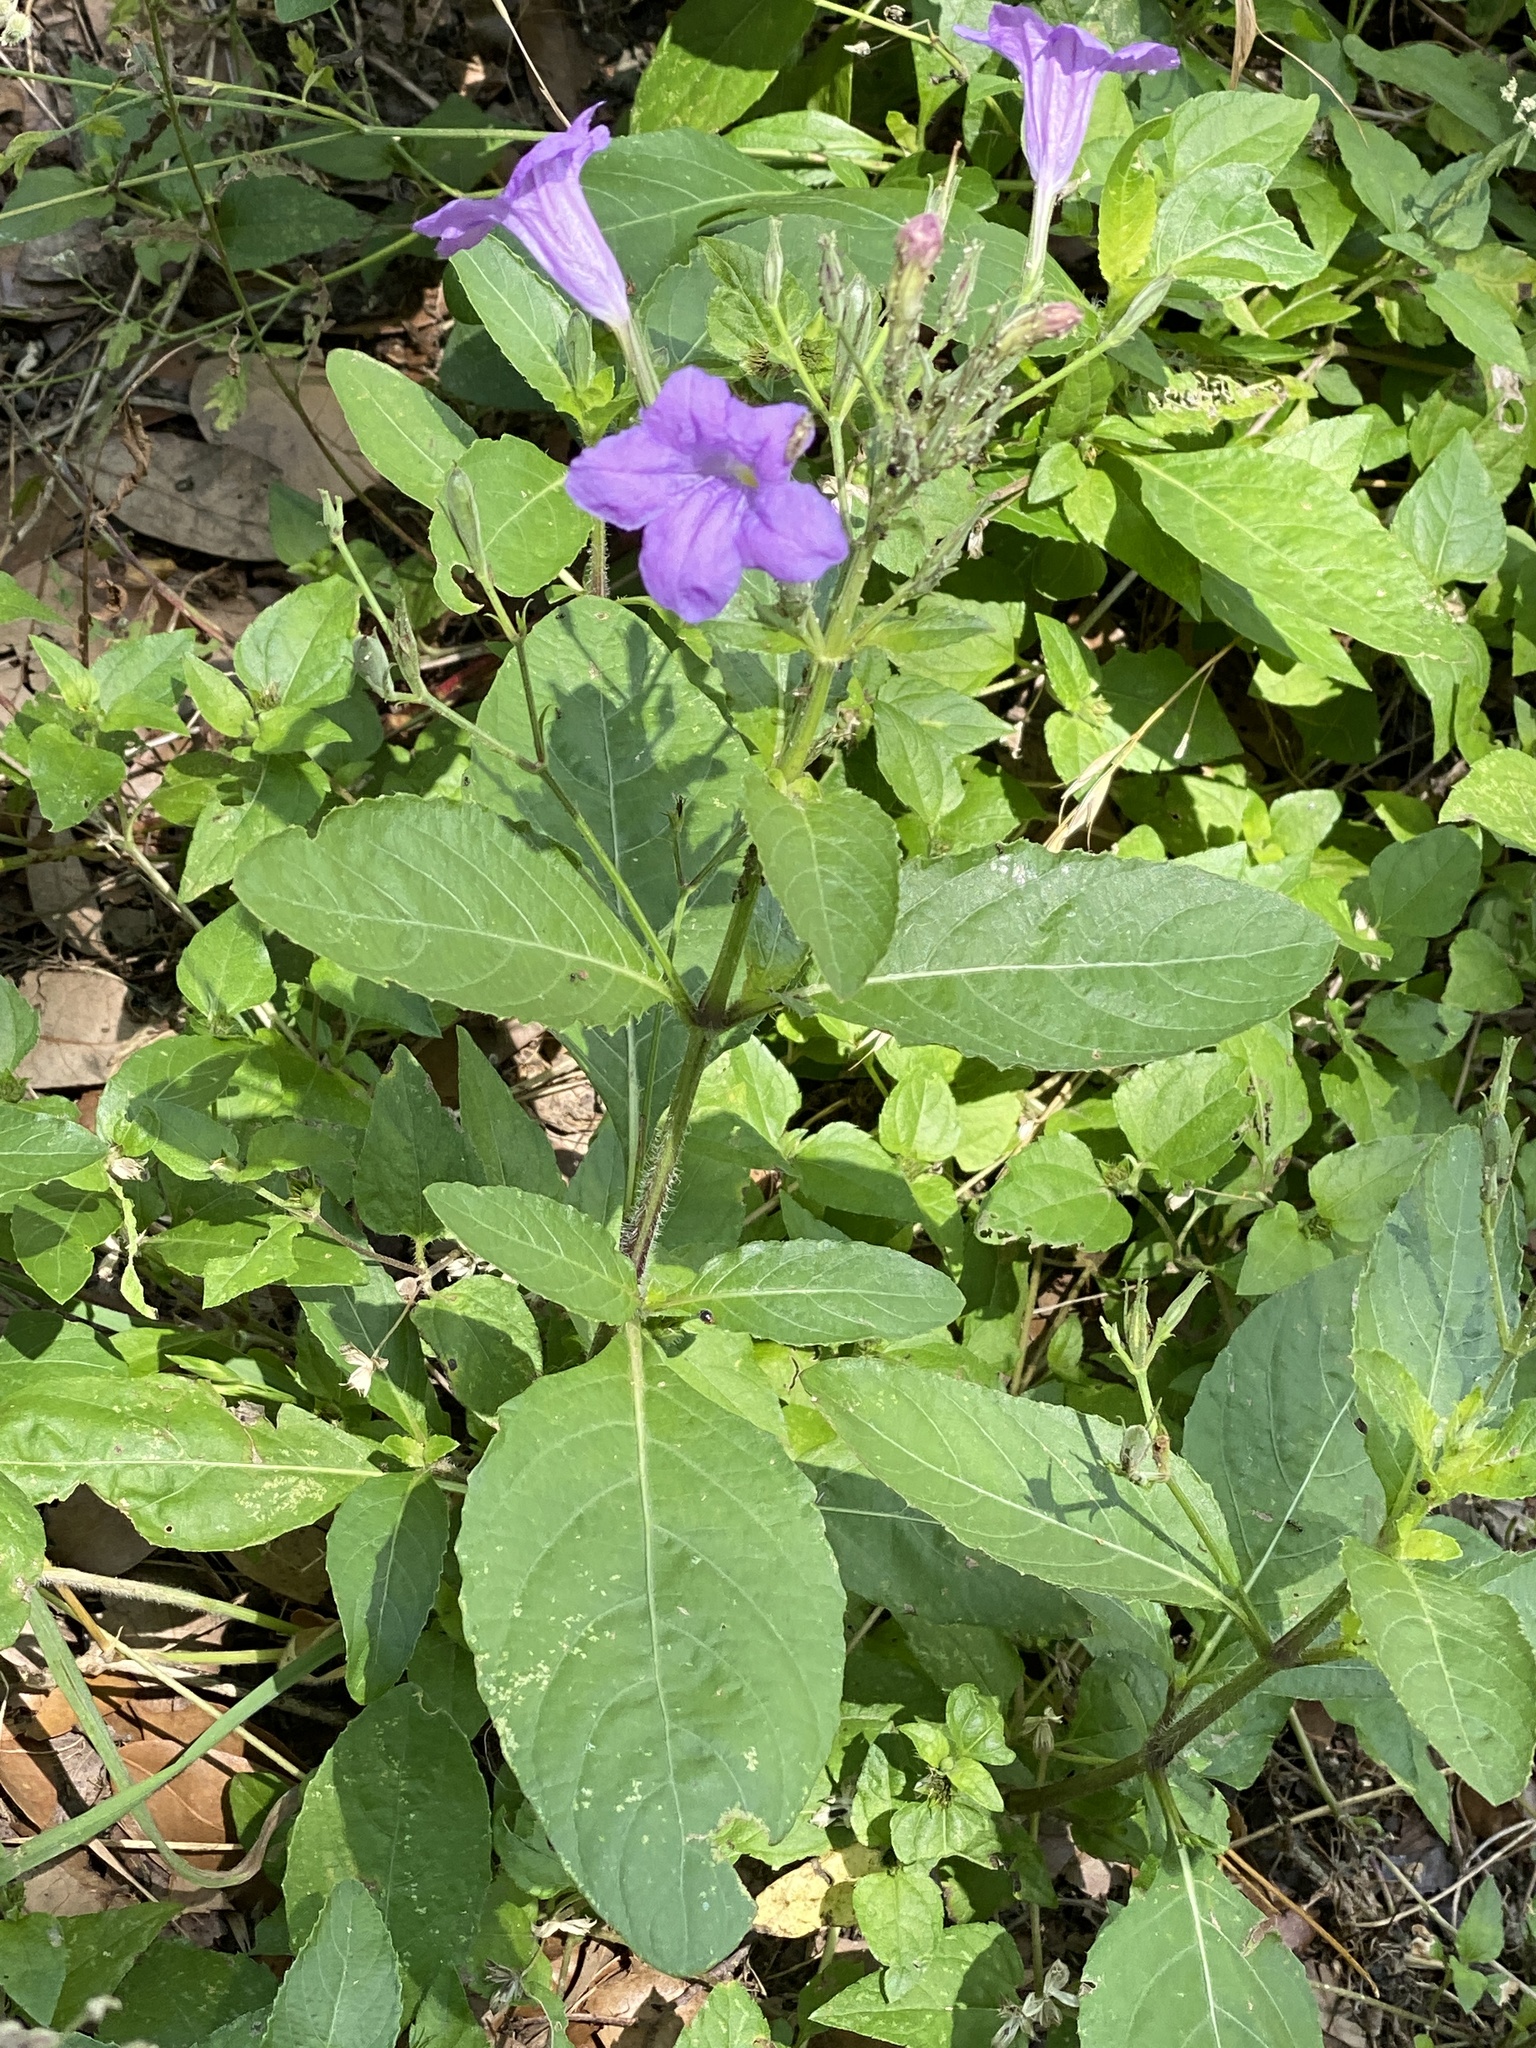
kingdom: Plantae
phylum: Tracheophyta
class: Magnoliopsida
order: Lamiales
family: Acanthaceae
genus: Ruellia
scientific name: Ruellia ciliatiflora
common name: Hairyflower wild petunia
